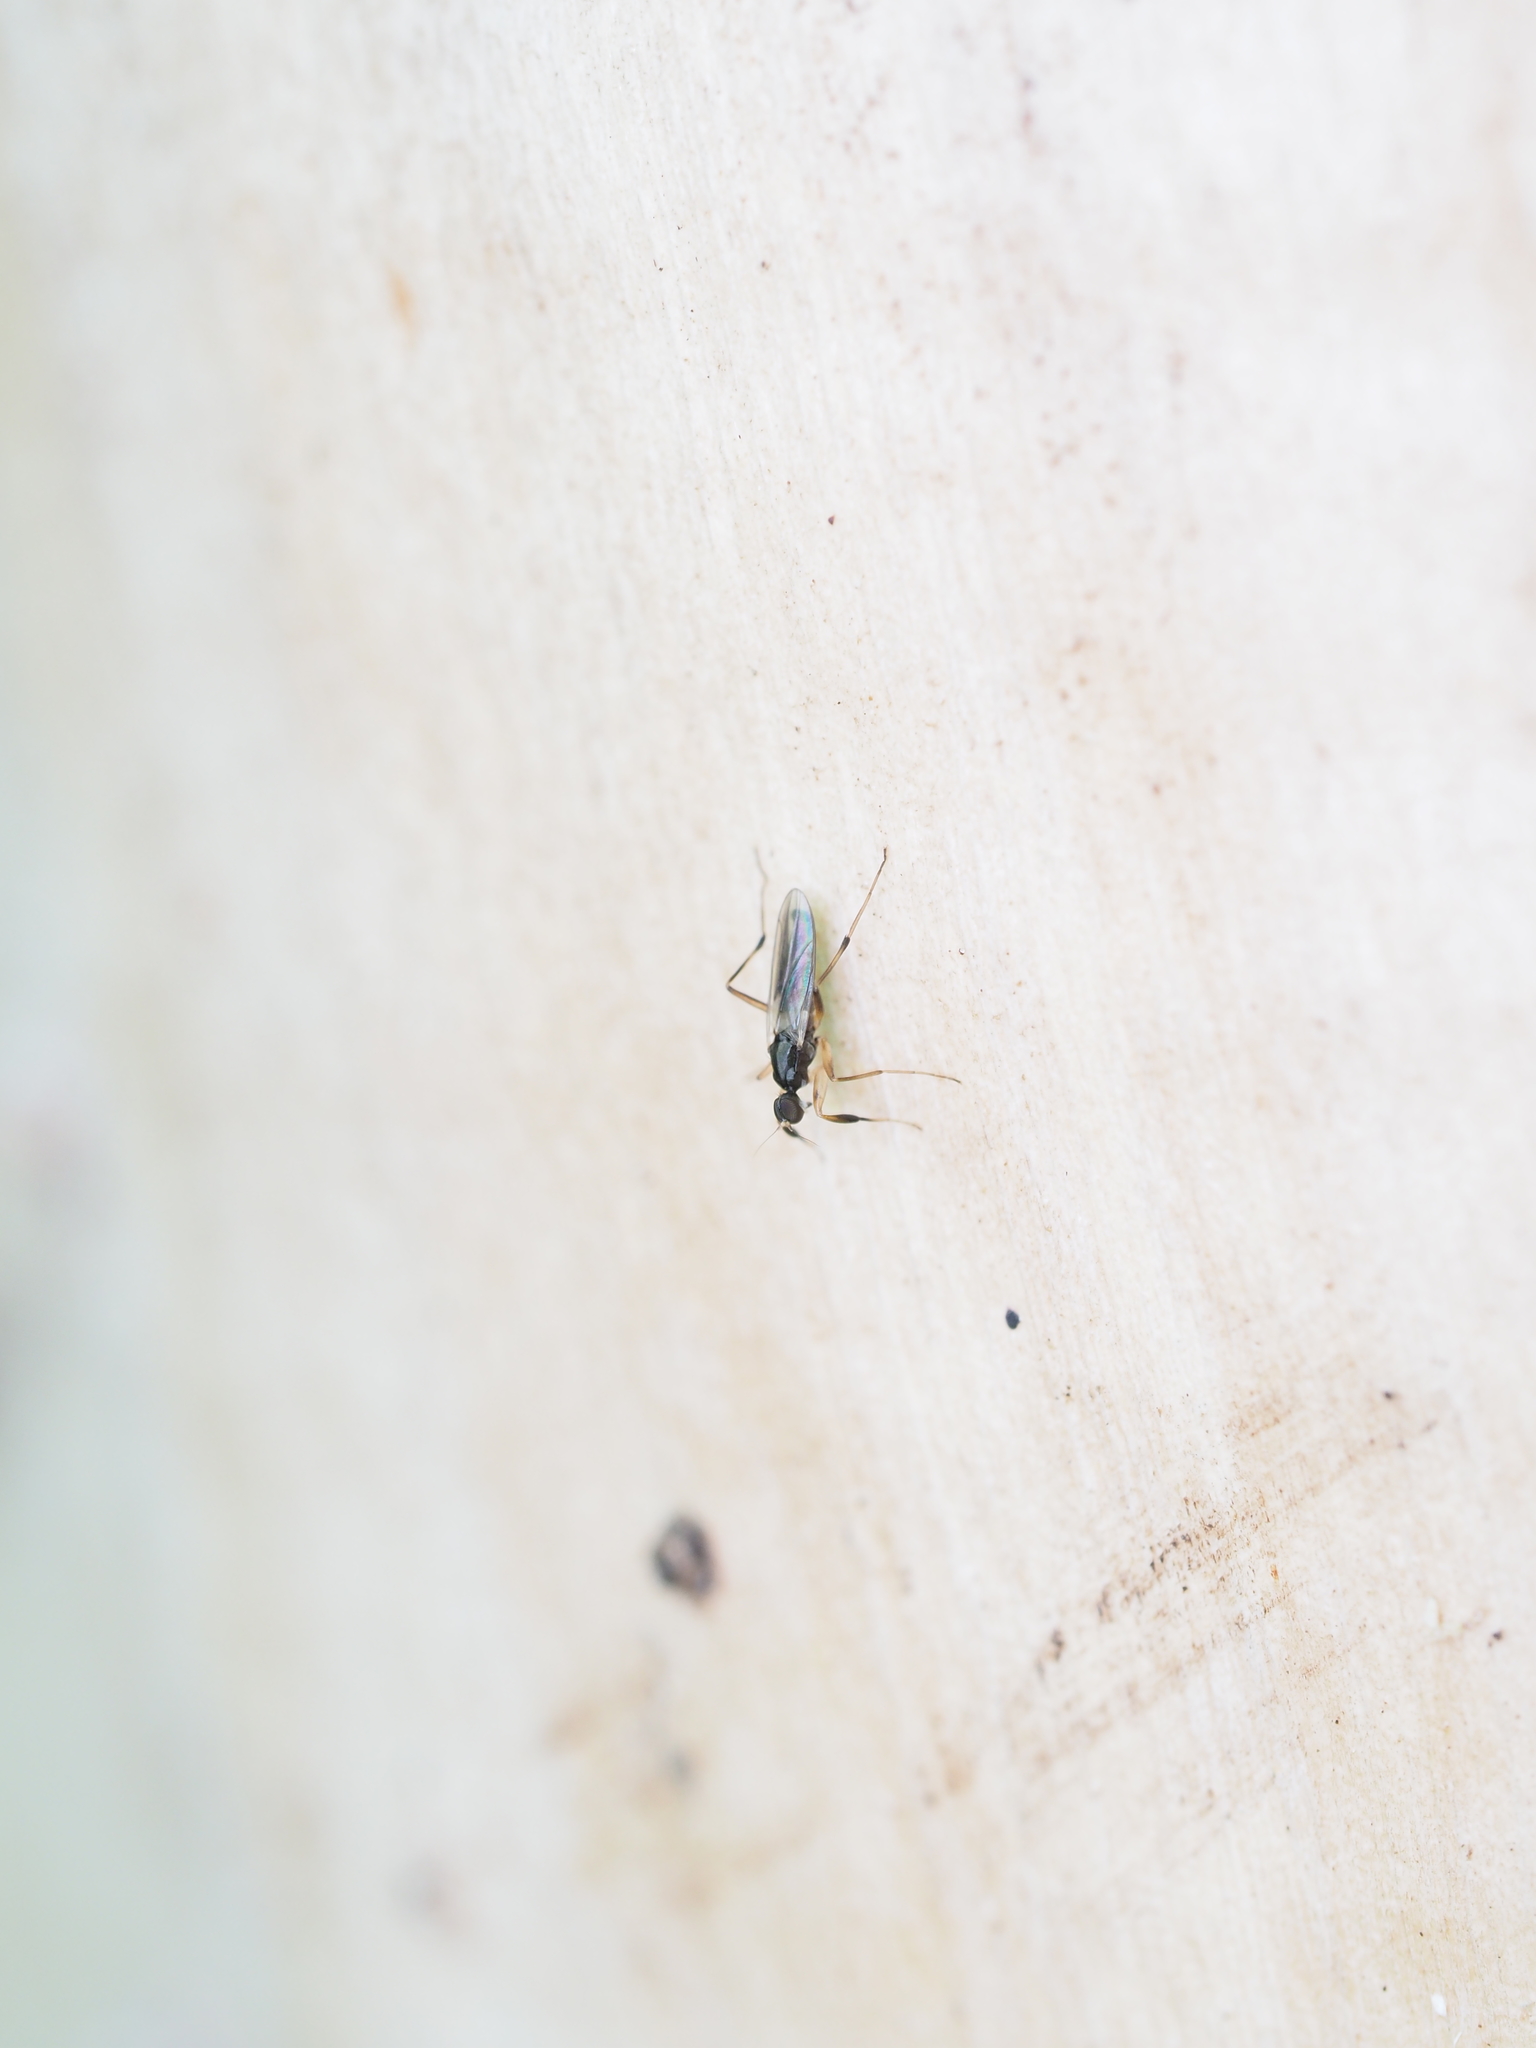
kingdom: Animalia
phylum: Arthropoda
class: Insecta
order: Diptera
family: Hybotidae
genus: Tachypeza
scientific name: Tachypeza nubila
